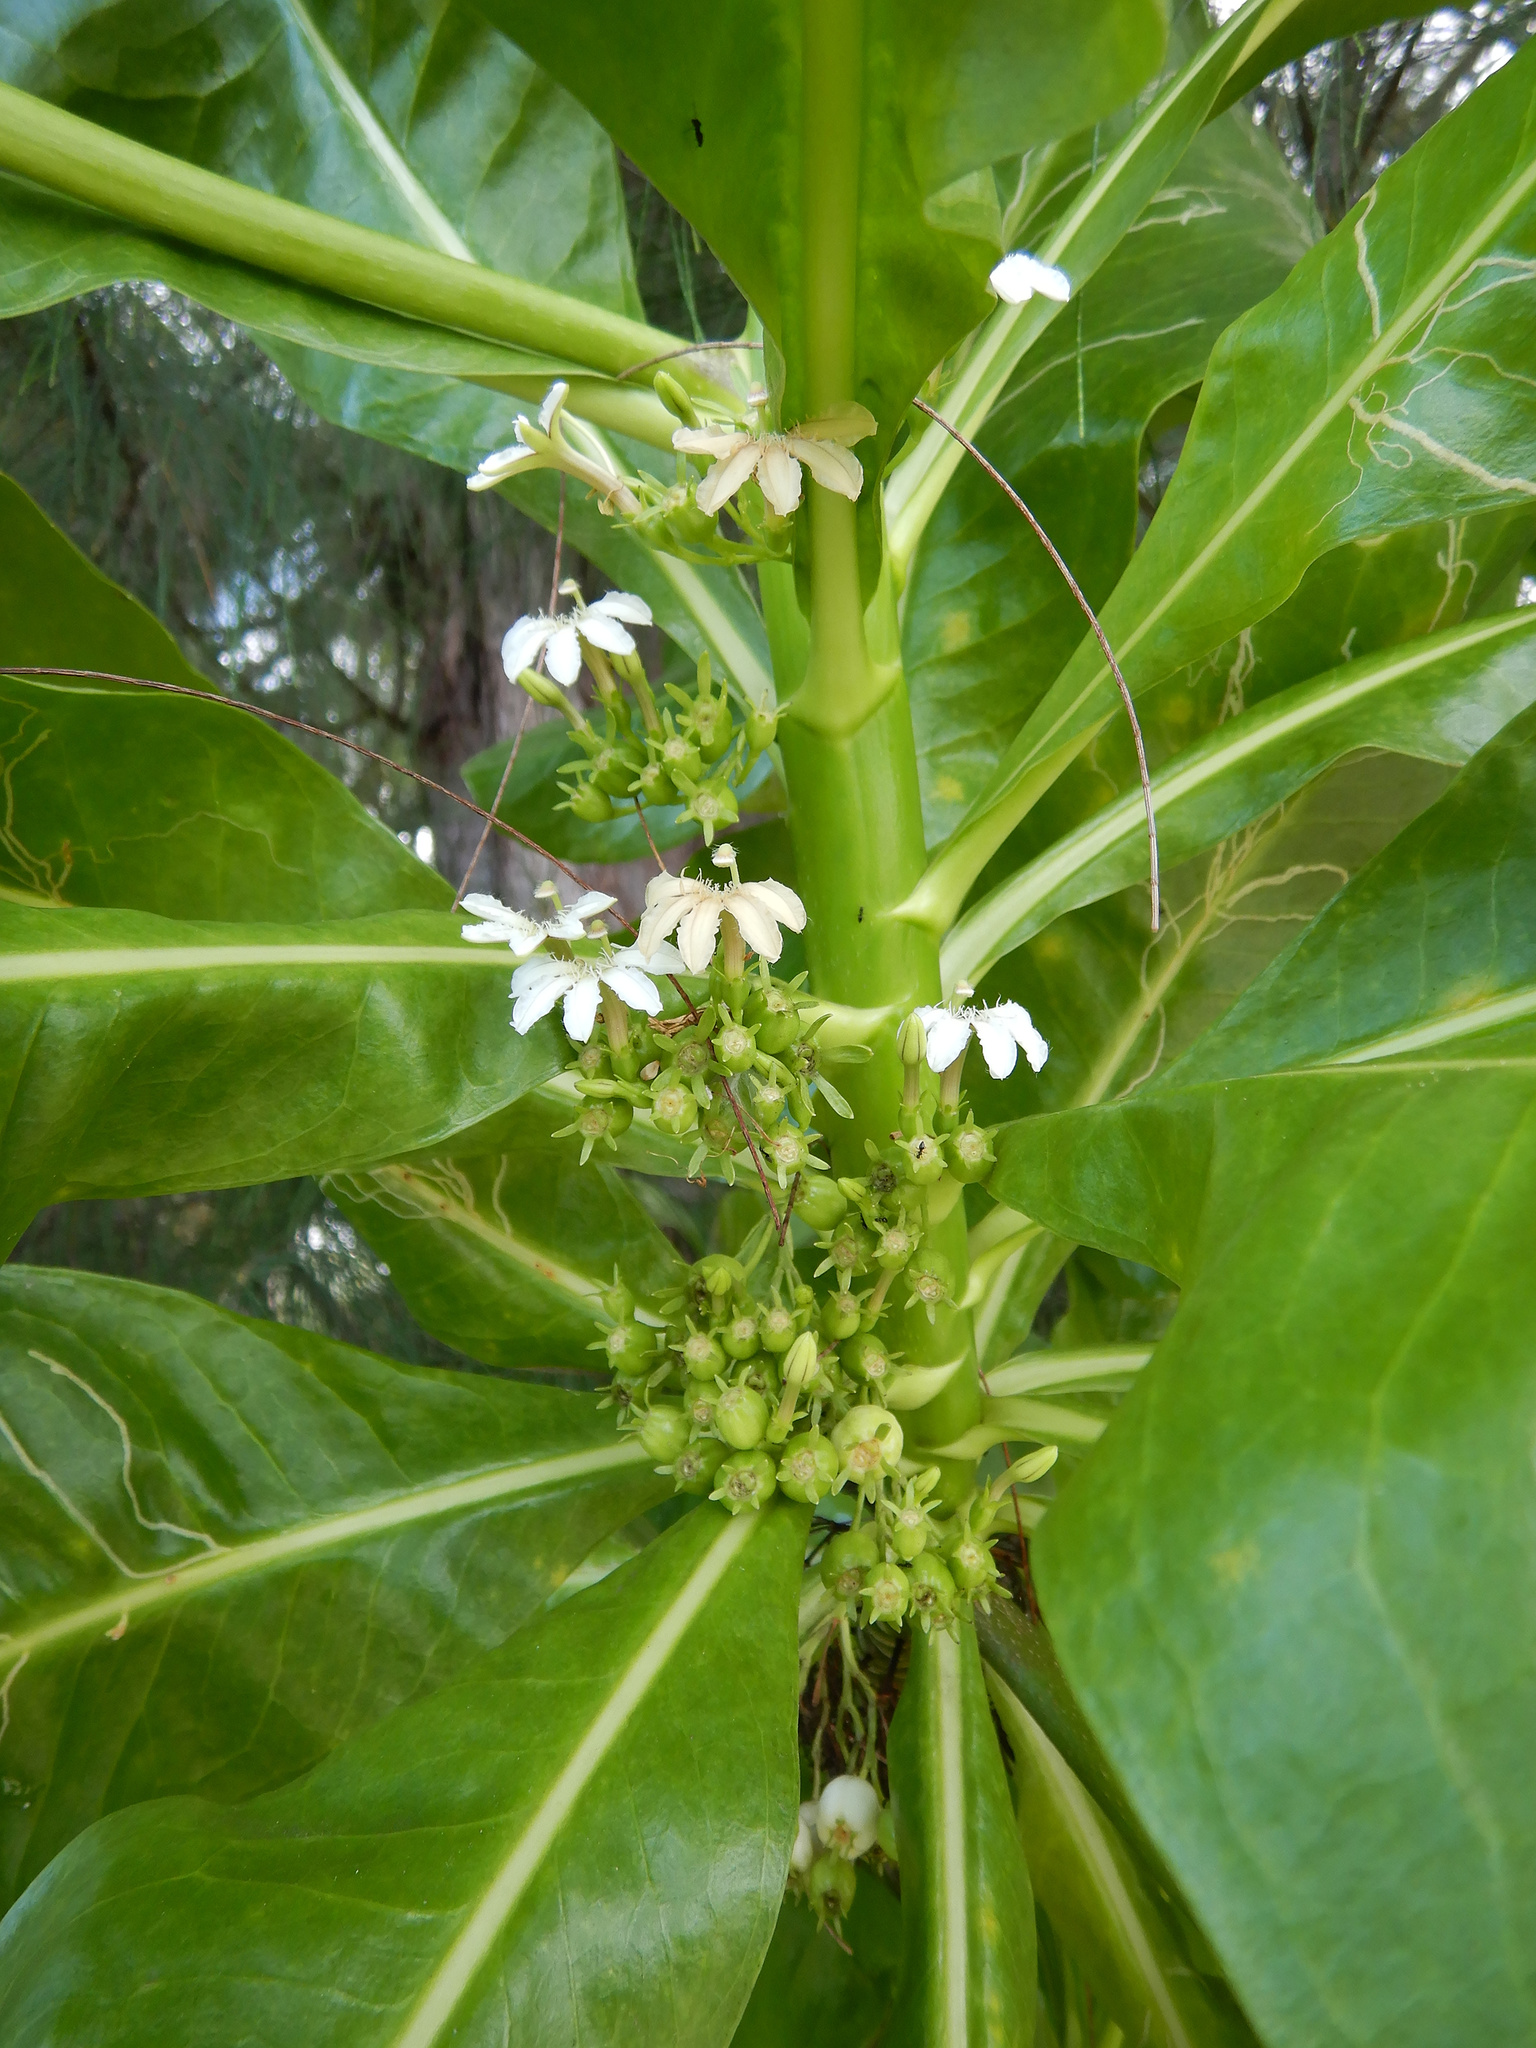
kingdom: Plantae
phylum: Tracheophyta
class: Magnoliopsida
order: Asterales
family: Goodeniaceae
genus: Scaevola
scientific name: Scaevola taccada
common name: Sea lettucetree
